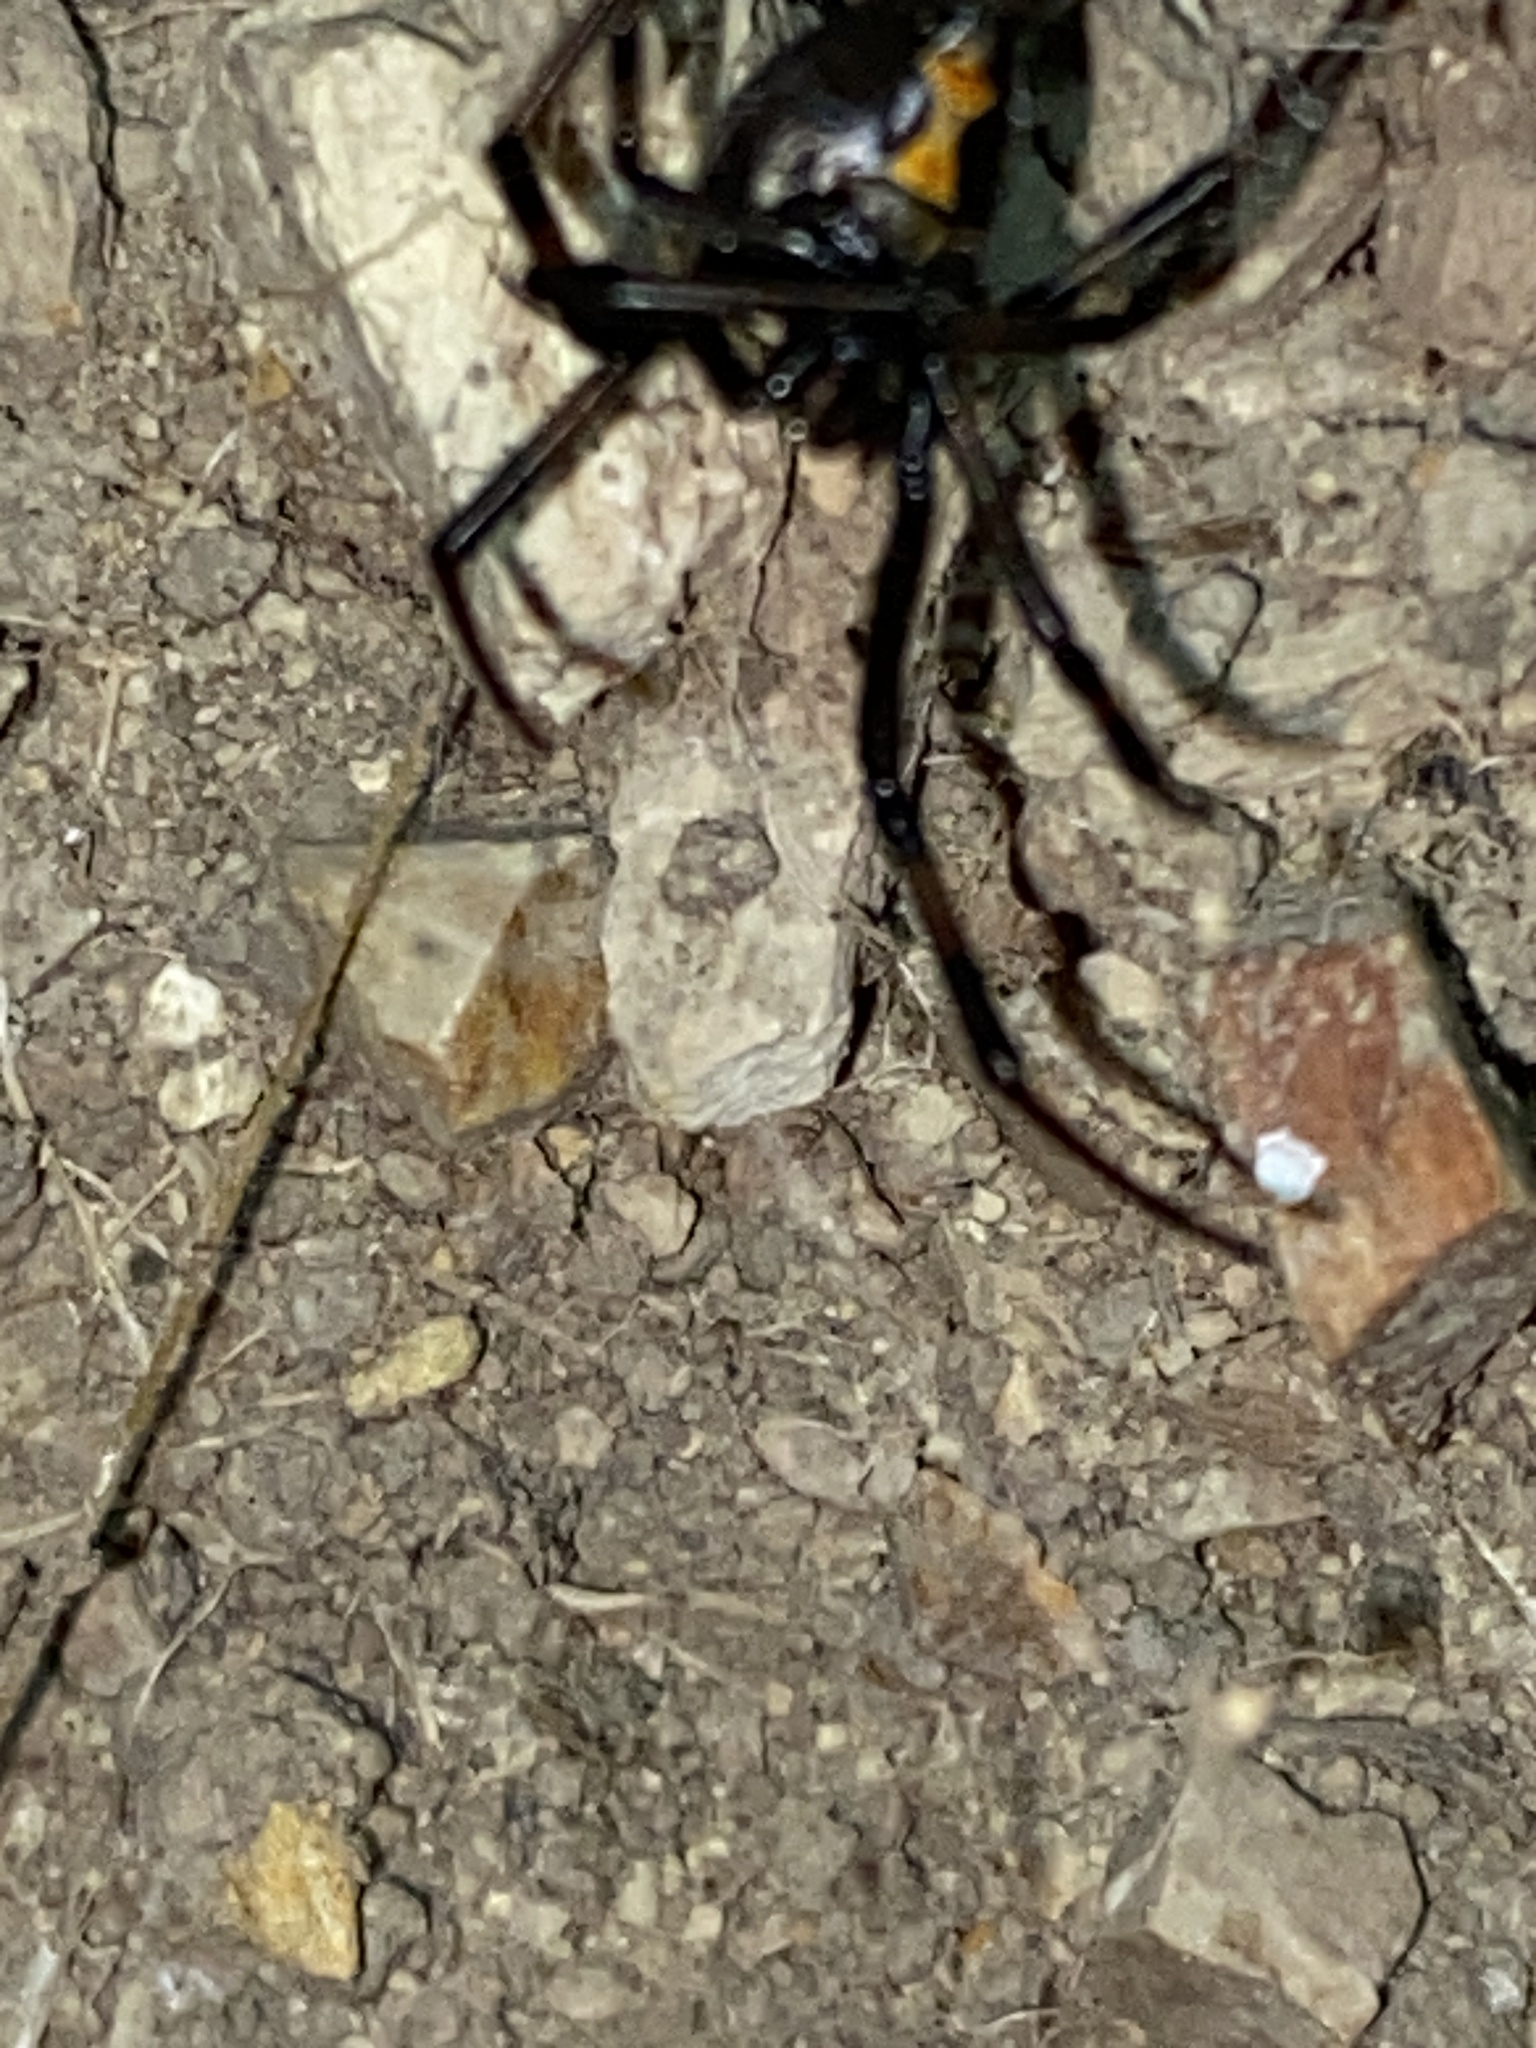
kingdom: Animalia
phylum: Arthropoda
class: Arachnida
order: Araneae
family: Theridiidae
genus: Latrodectus
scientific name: Latrodectus hesperus
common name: Western black widow
